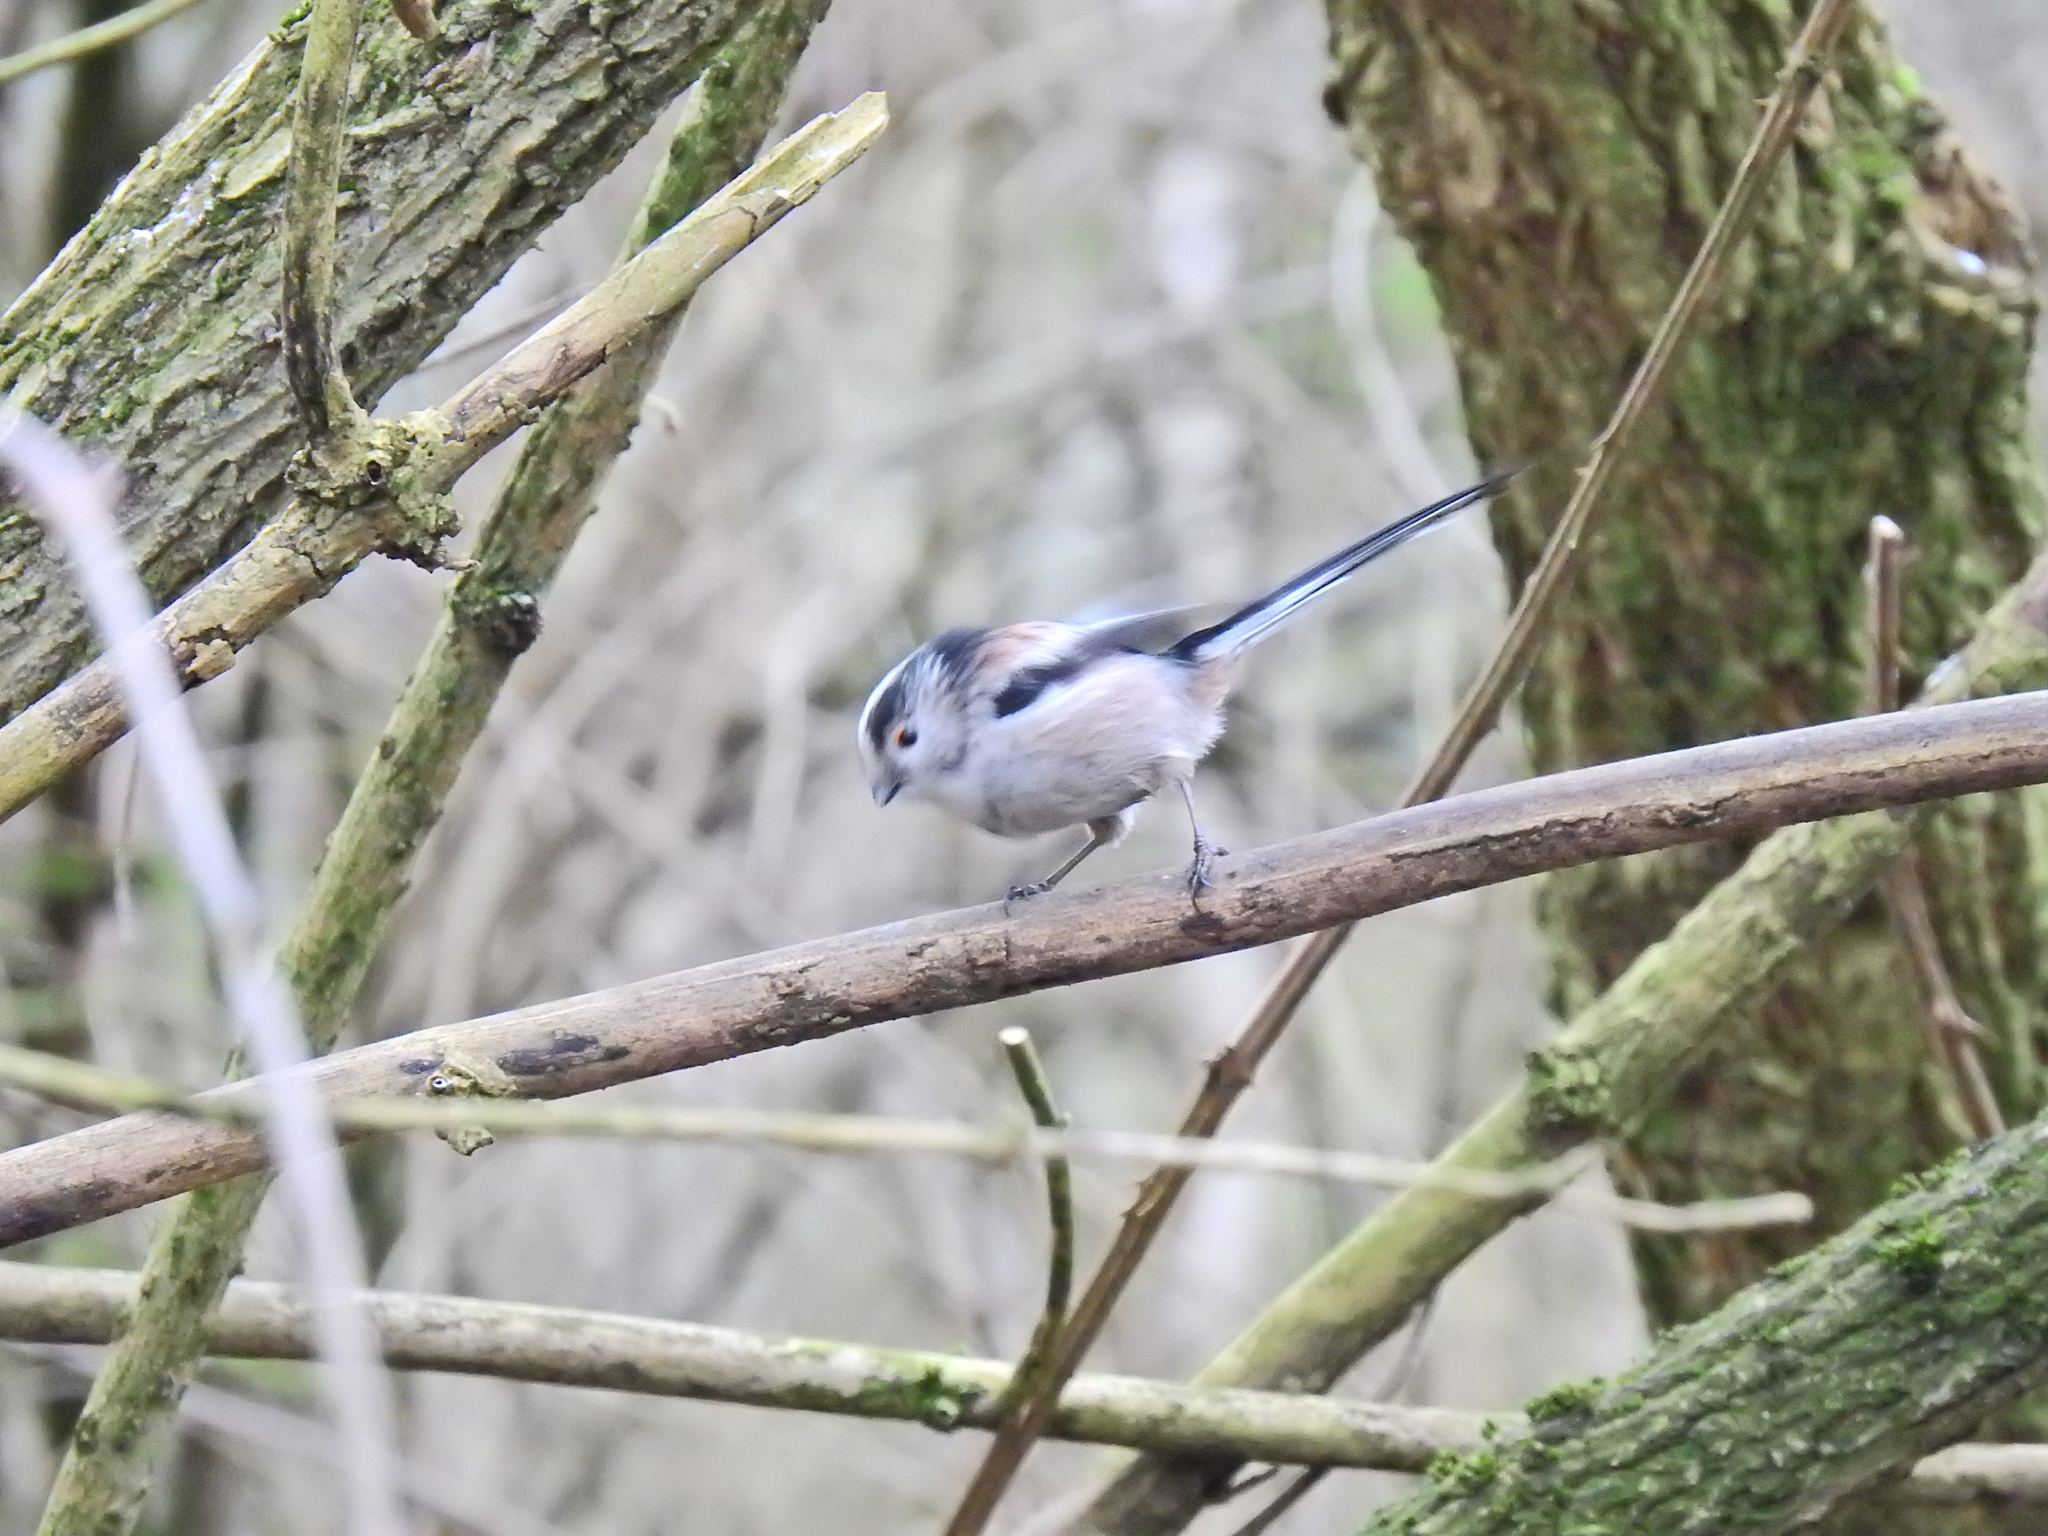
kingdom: Animalia
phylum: Chordata
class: Aves
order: Passeriformes
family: Aegithalidae
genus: Aegithalos
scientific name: Aegithalos caudatus
